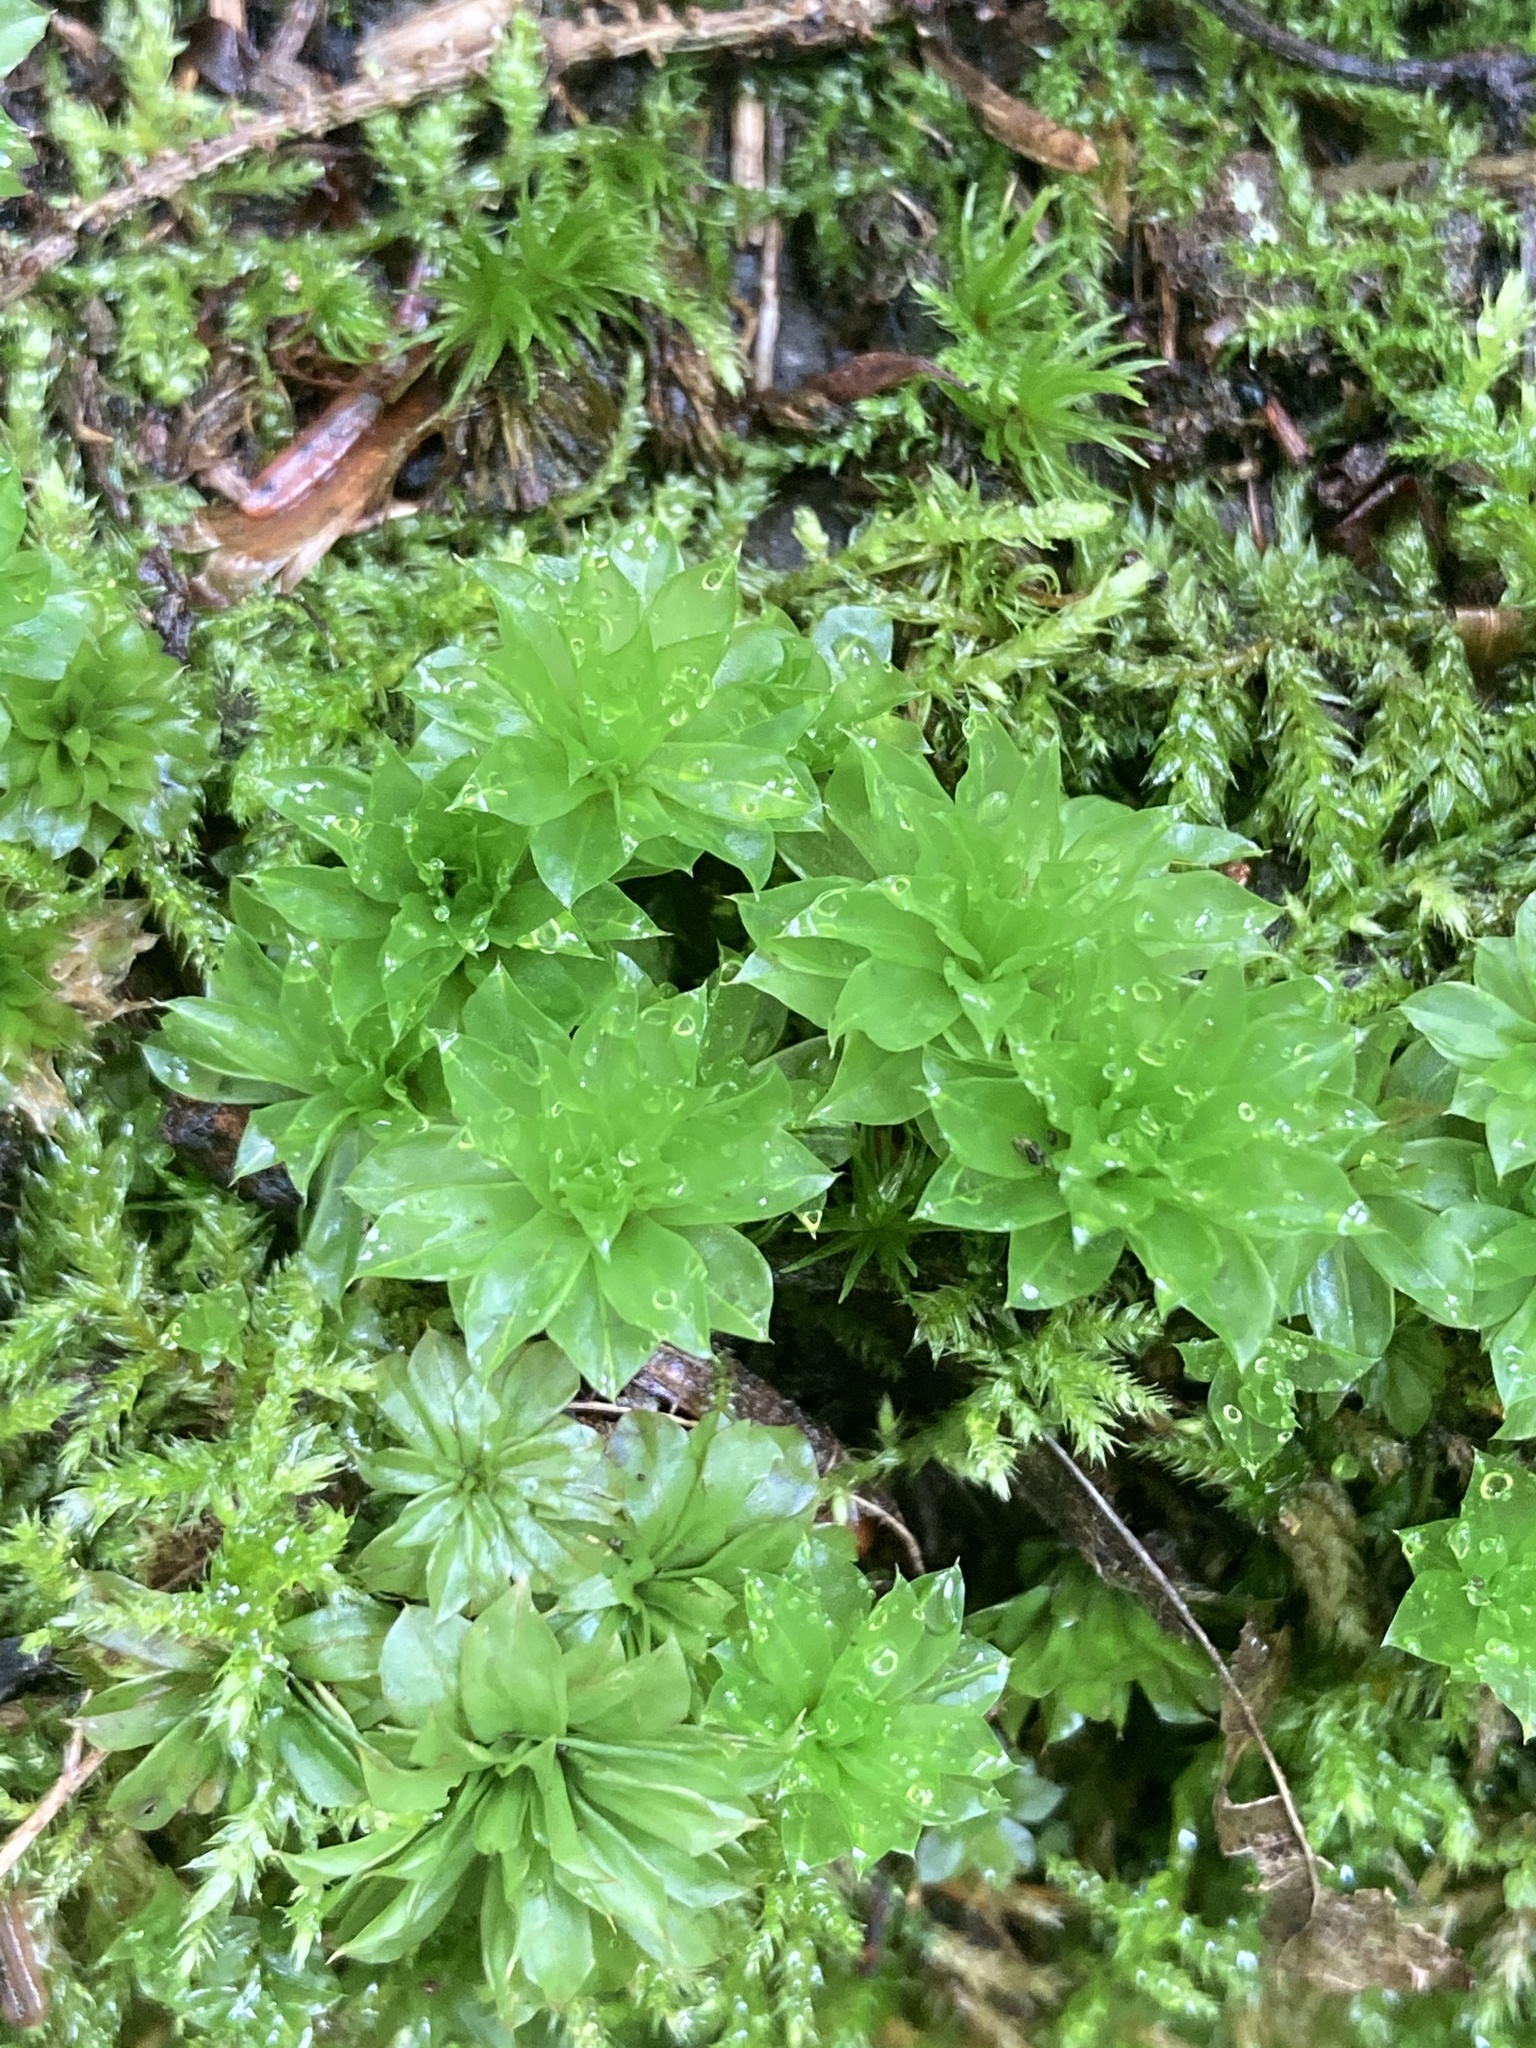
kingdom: Plantae
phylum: Bryophyta
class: Bryopsida
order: Bryales
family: Bryaceae
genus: Rhodobryum
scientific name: Rhodobryum ontariense
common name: Ontario rhodobryum moss
